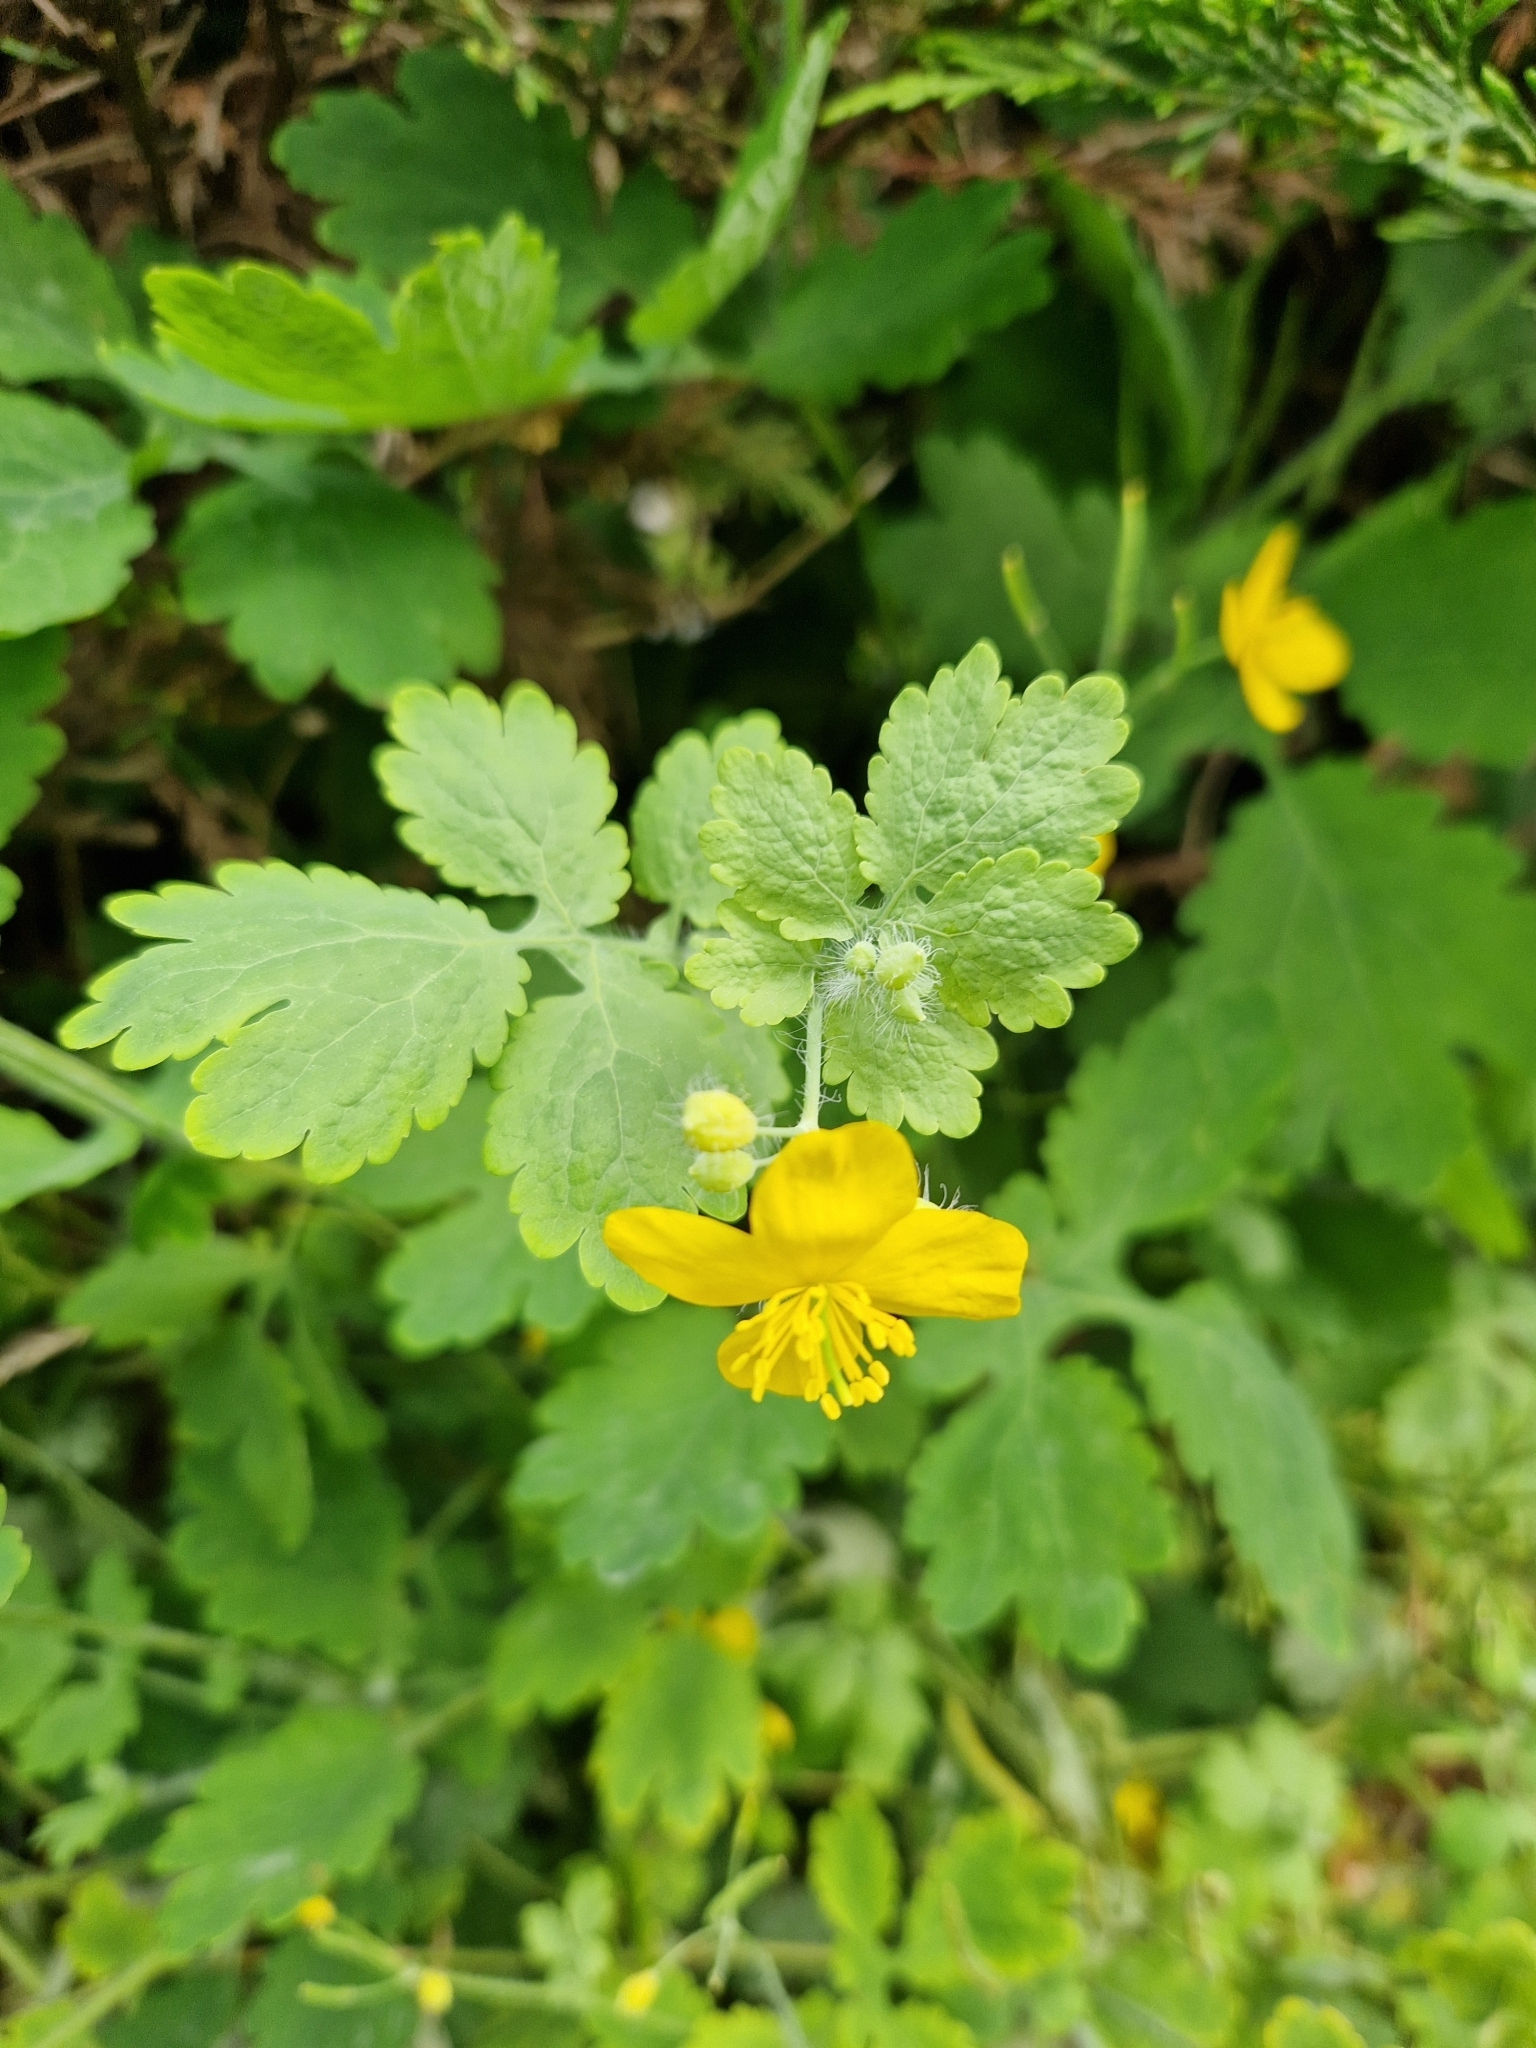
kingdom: Plantae
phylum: Tracheophyta
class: Magnoliopsida
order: Ranunculales
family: Papaveraceae
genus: Chelidonium
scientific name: Chelidonium majus
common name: Greater celandine
